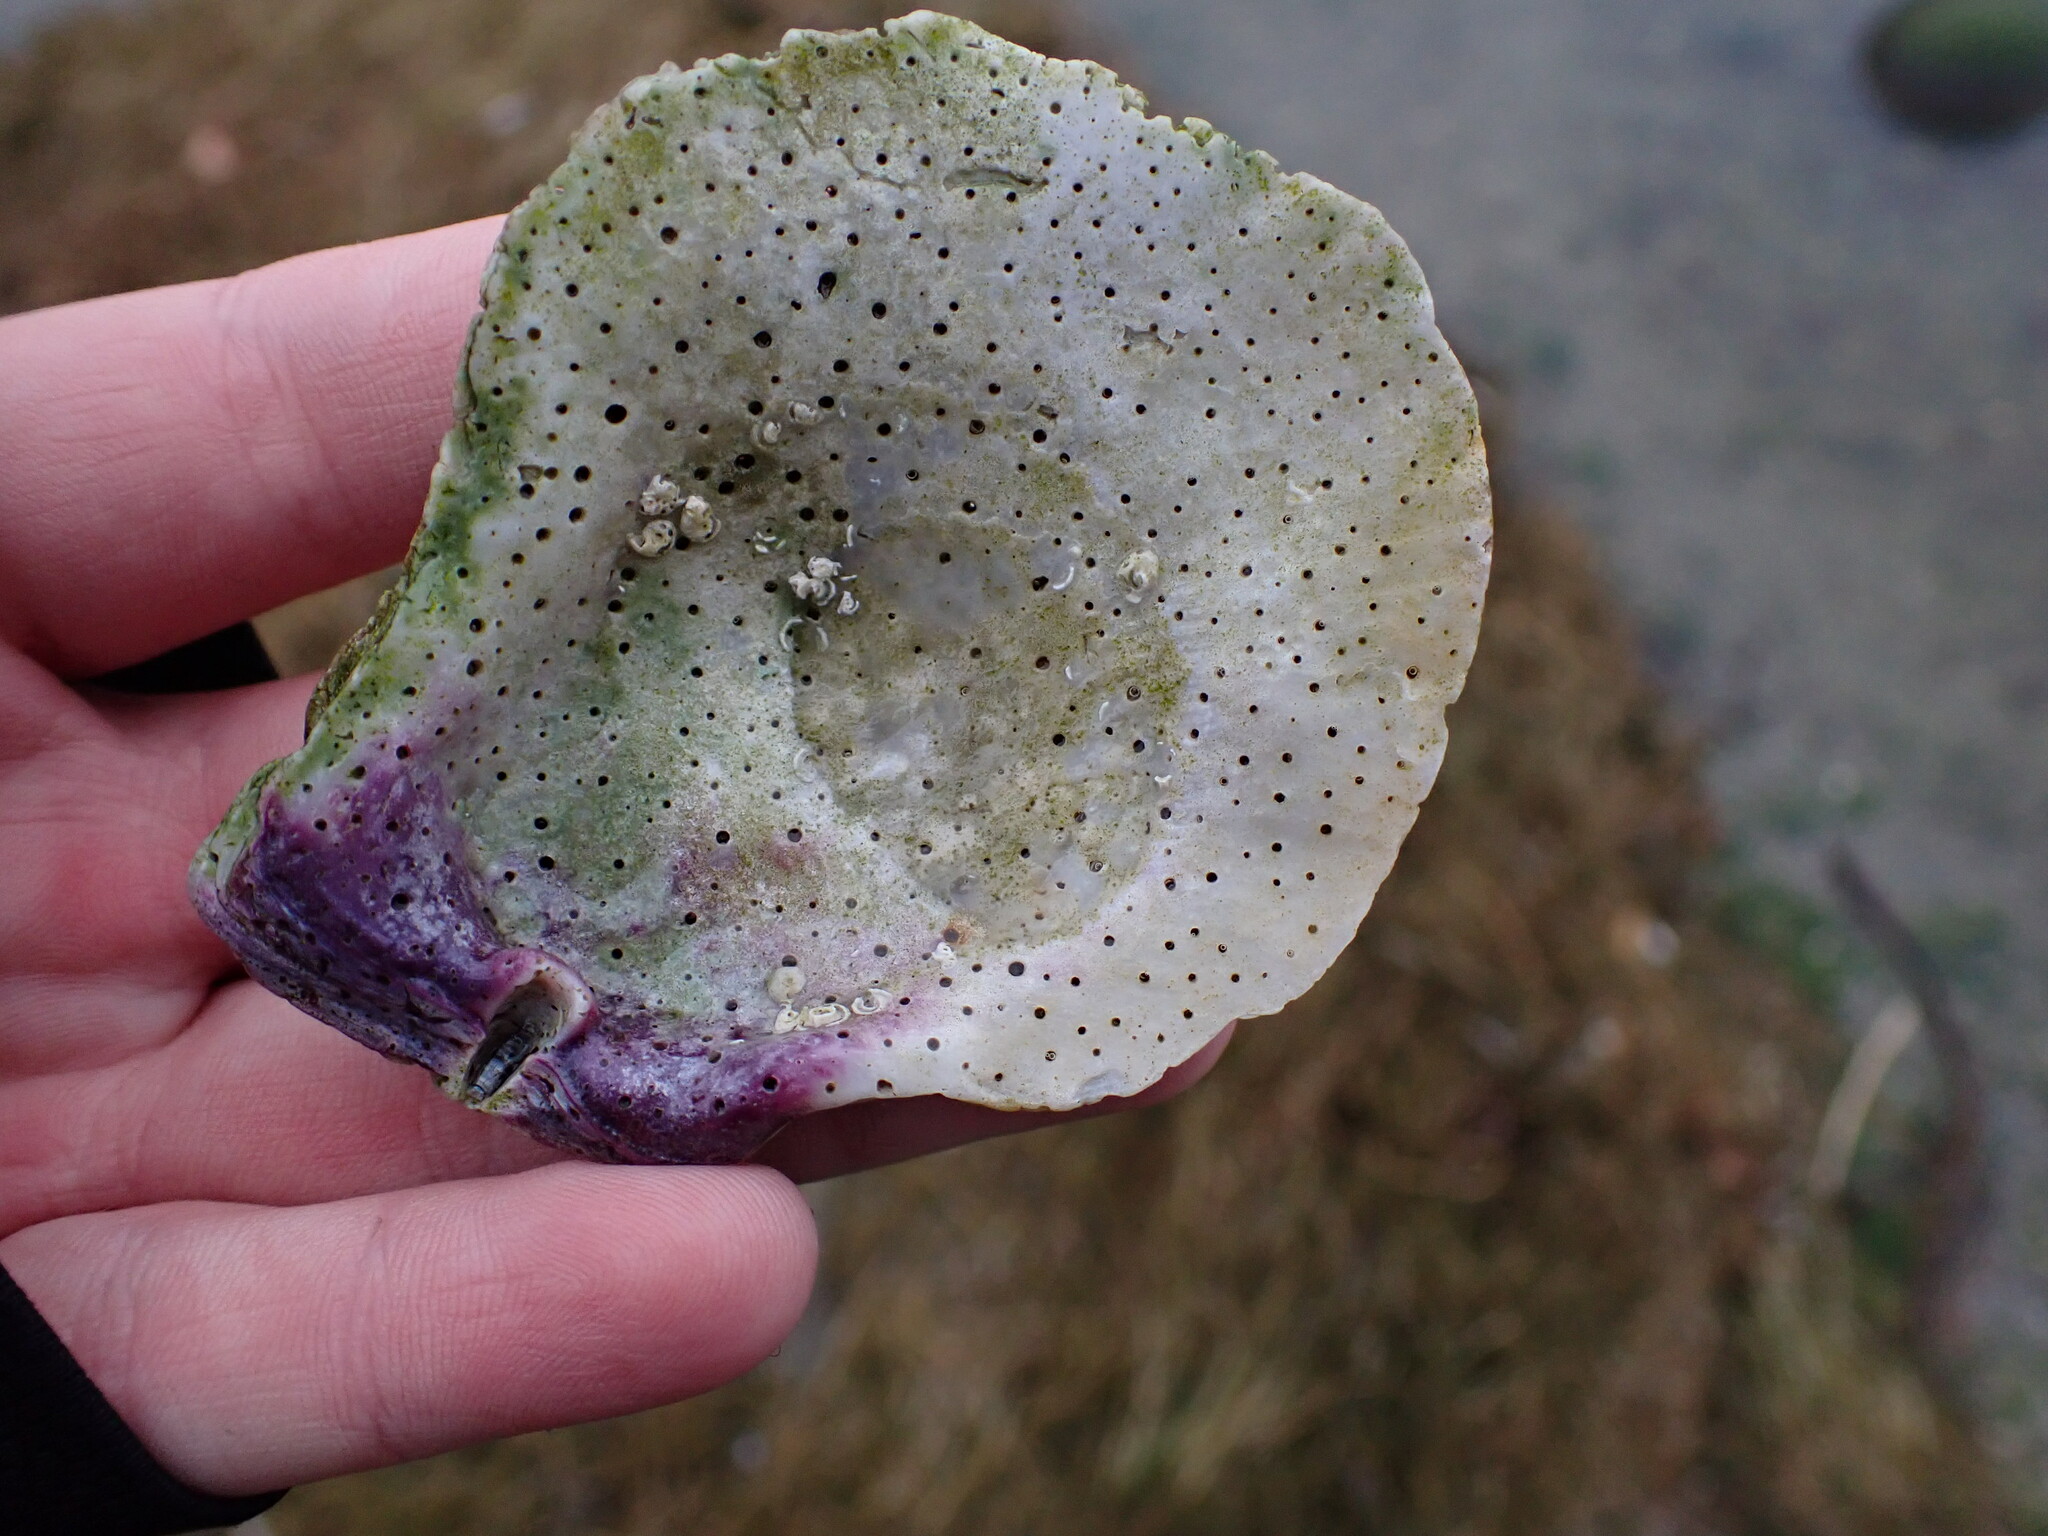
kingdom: Animalia
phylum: Mollusca
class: Bivalvia
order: Pectinida
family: Pectinidae
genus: Crassadoma
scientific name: Crassadoma gigantea
